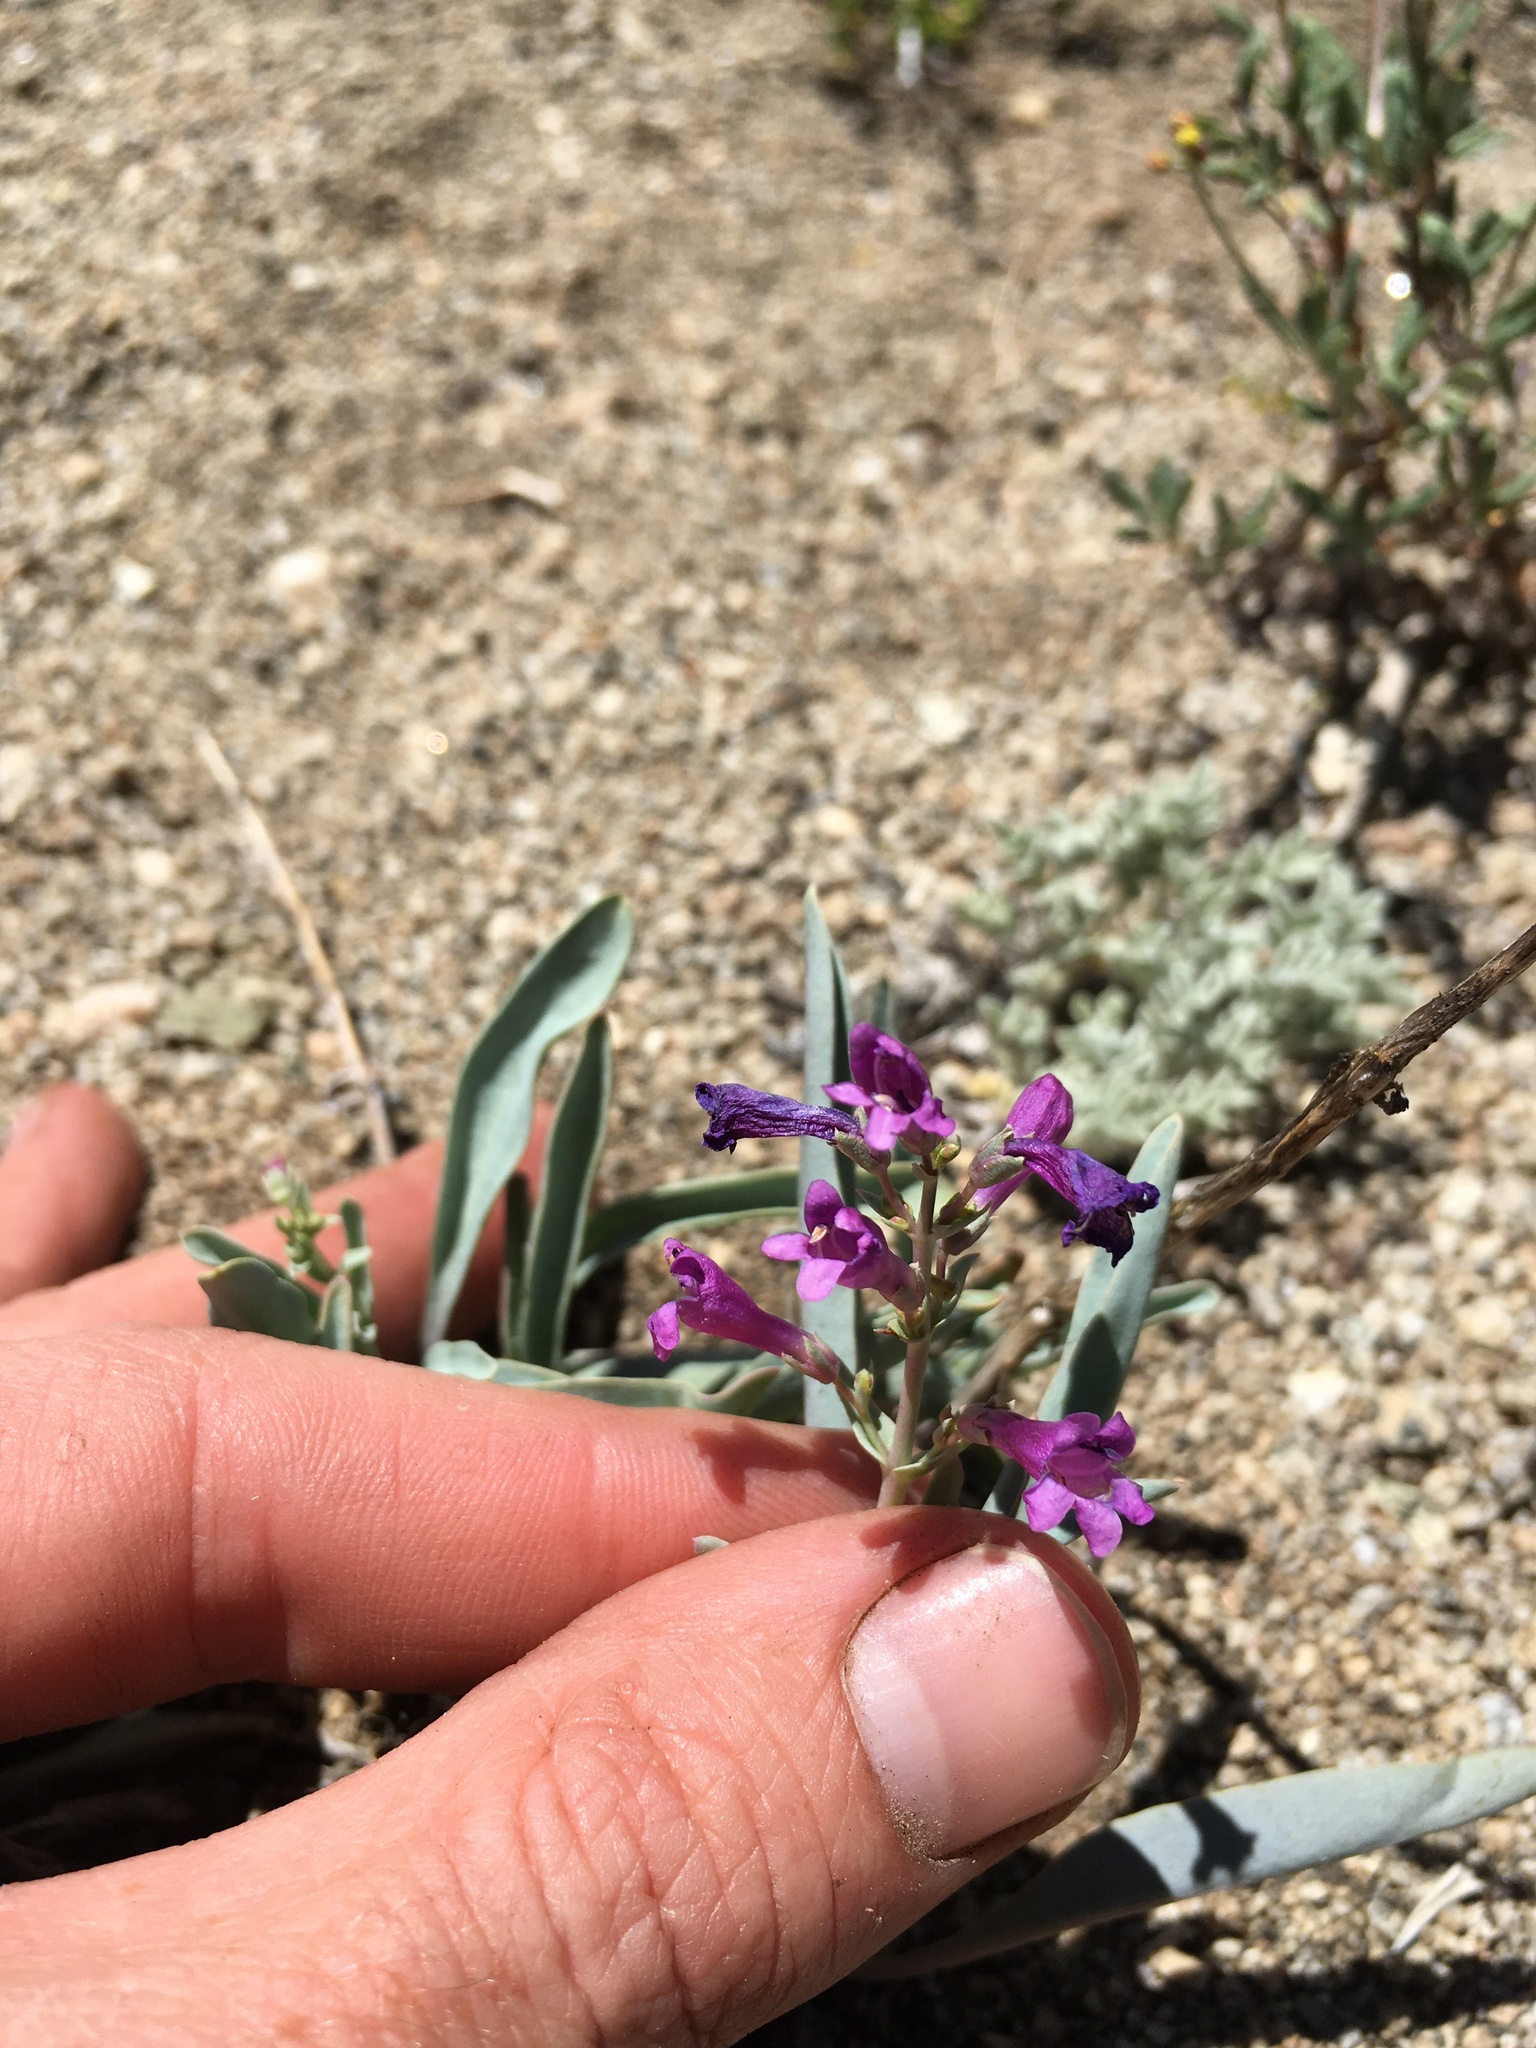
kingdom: Plantae
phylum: Tracheophyta
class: Magnoliopsida
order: Lamiales
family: Plantaginaceae
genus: Penstemon
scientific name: Penstemon patens
